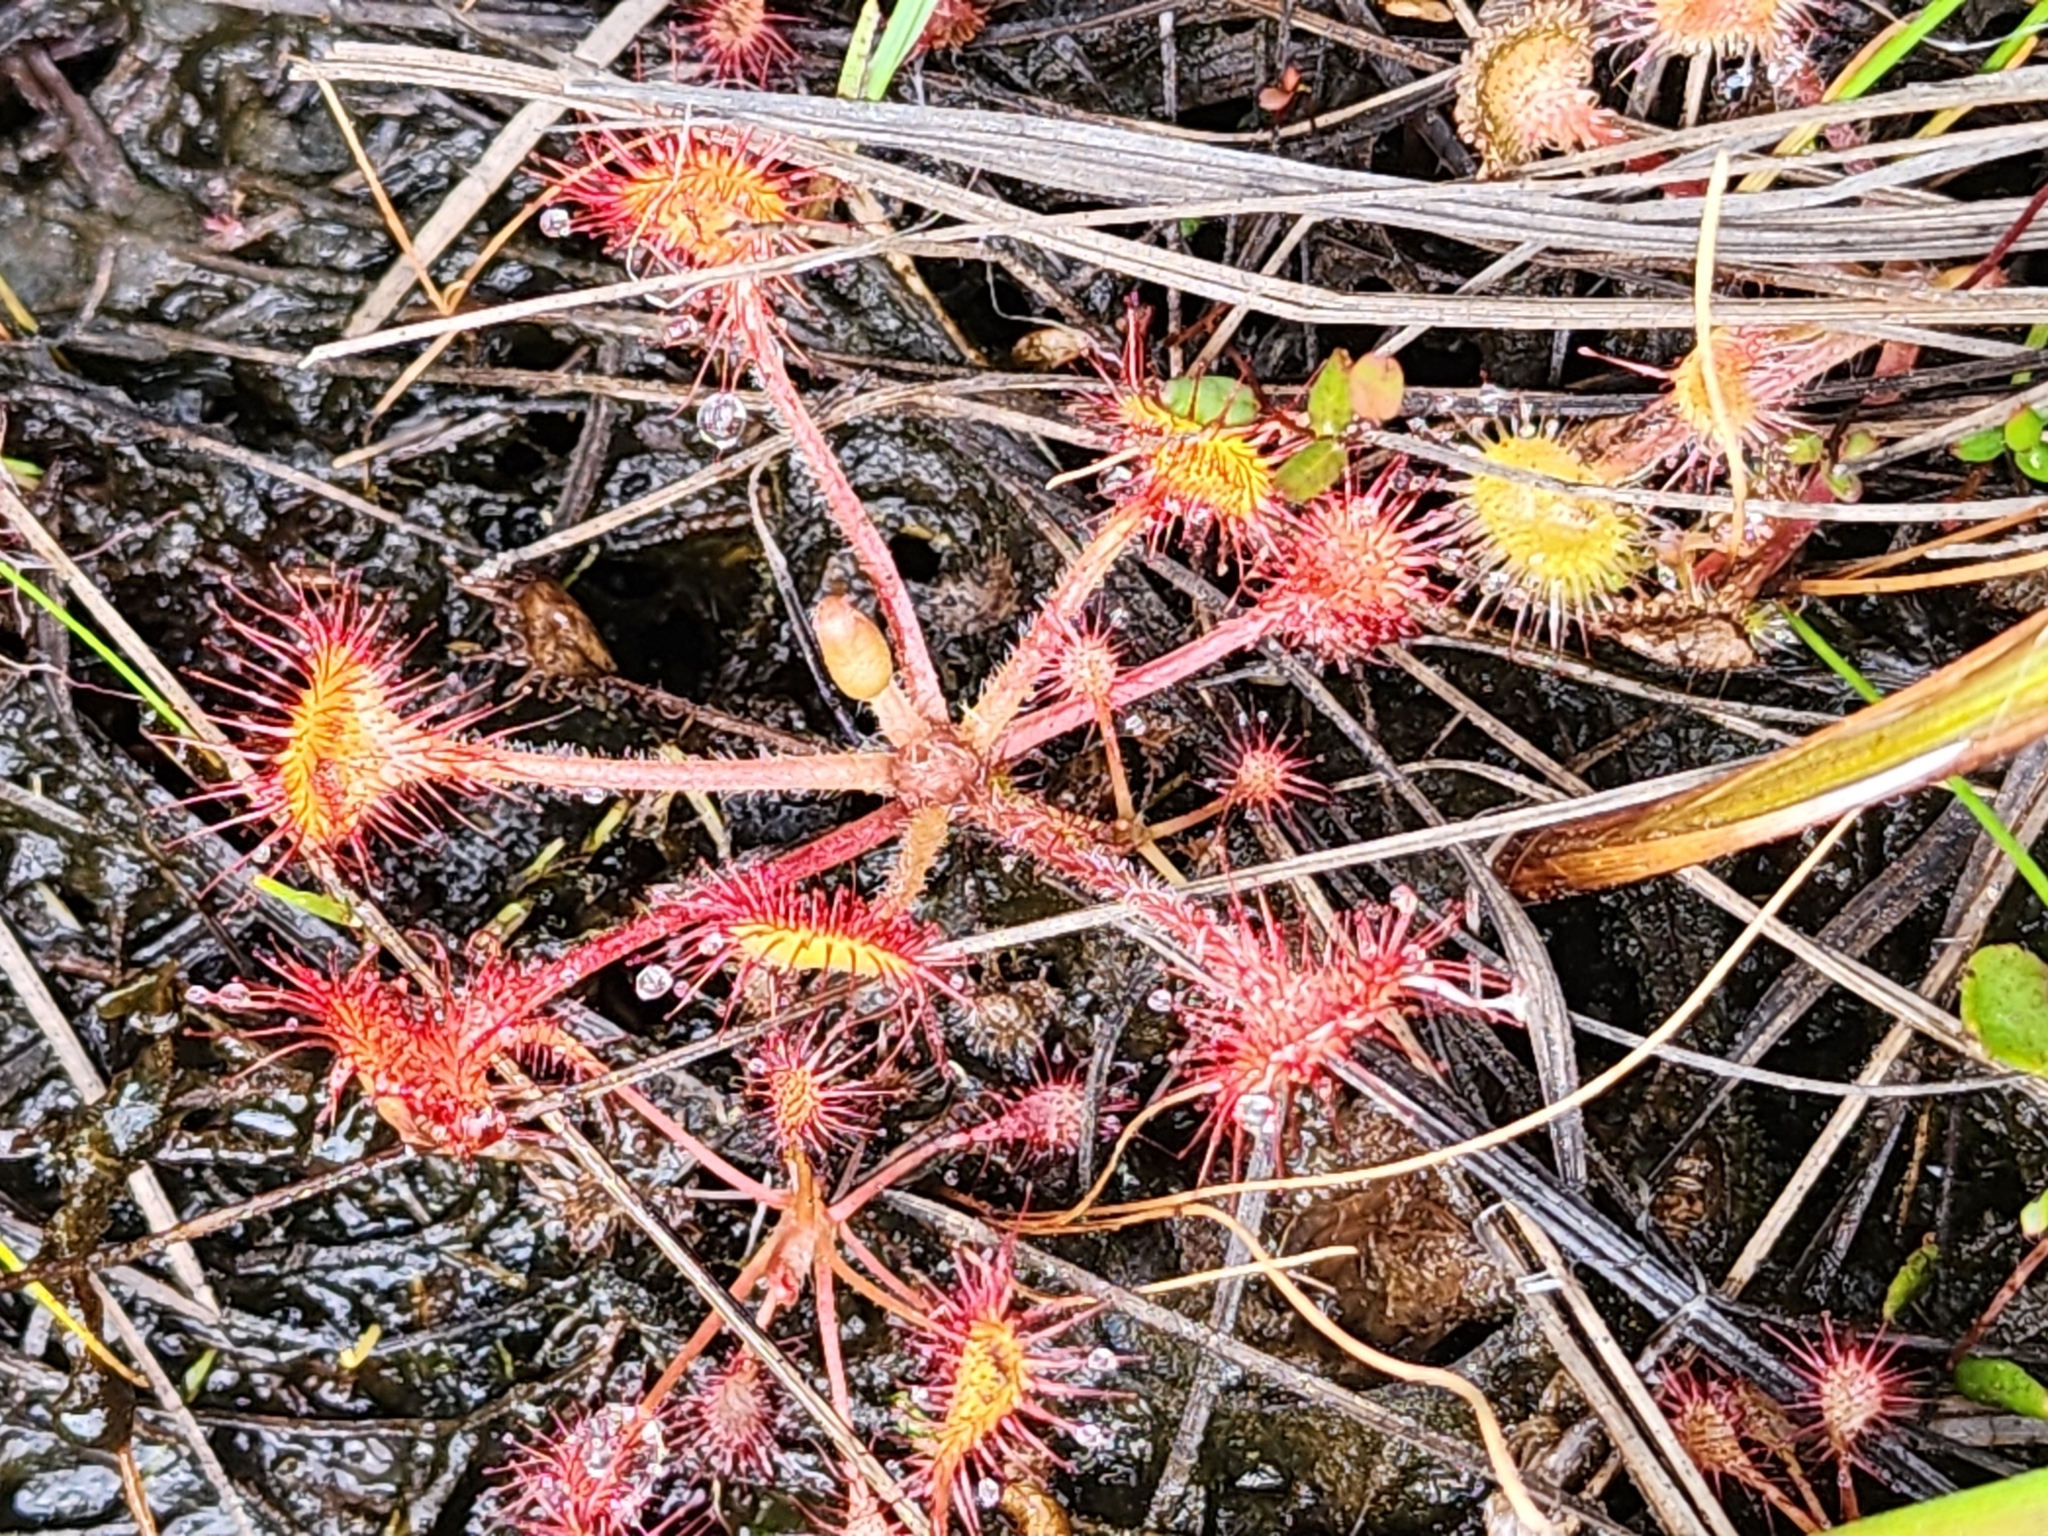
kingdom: Plantae
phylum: Tracheophyta
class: Magnoliopsida
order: Caryophyllales
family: Droseraceae
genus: Drosera
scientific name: Drosera rotundifolia
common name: Round-leaved sundew
